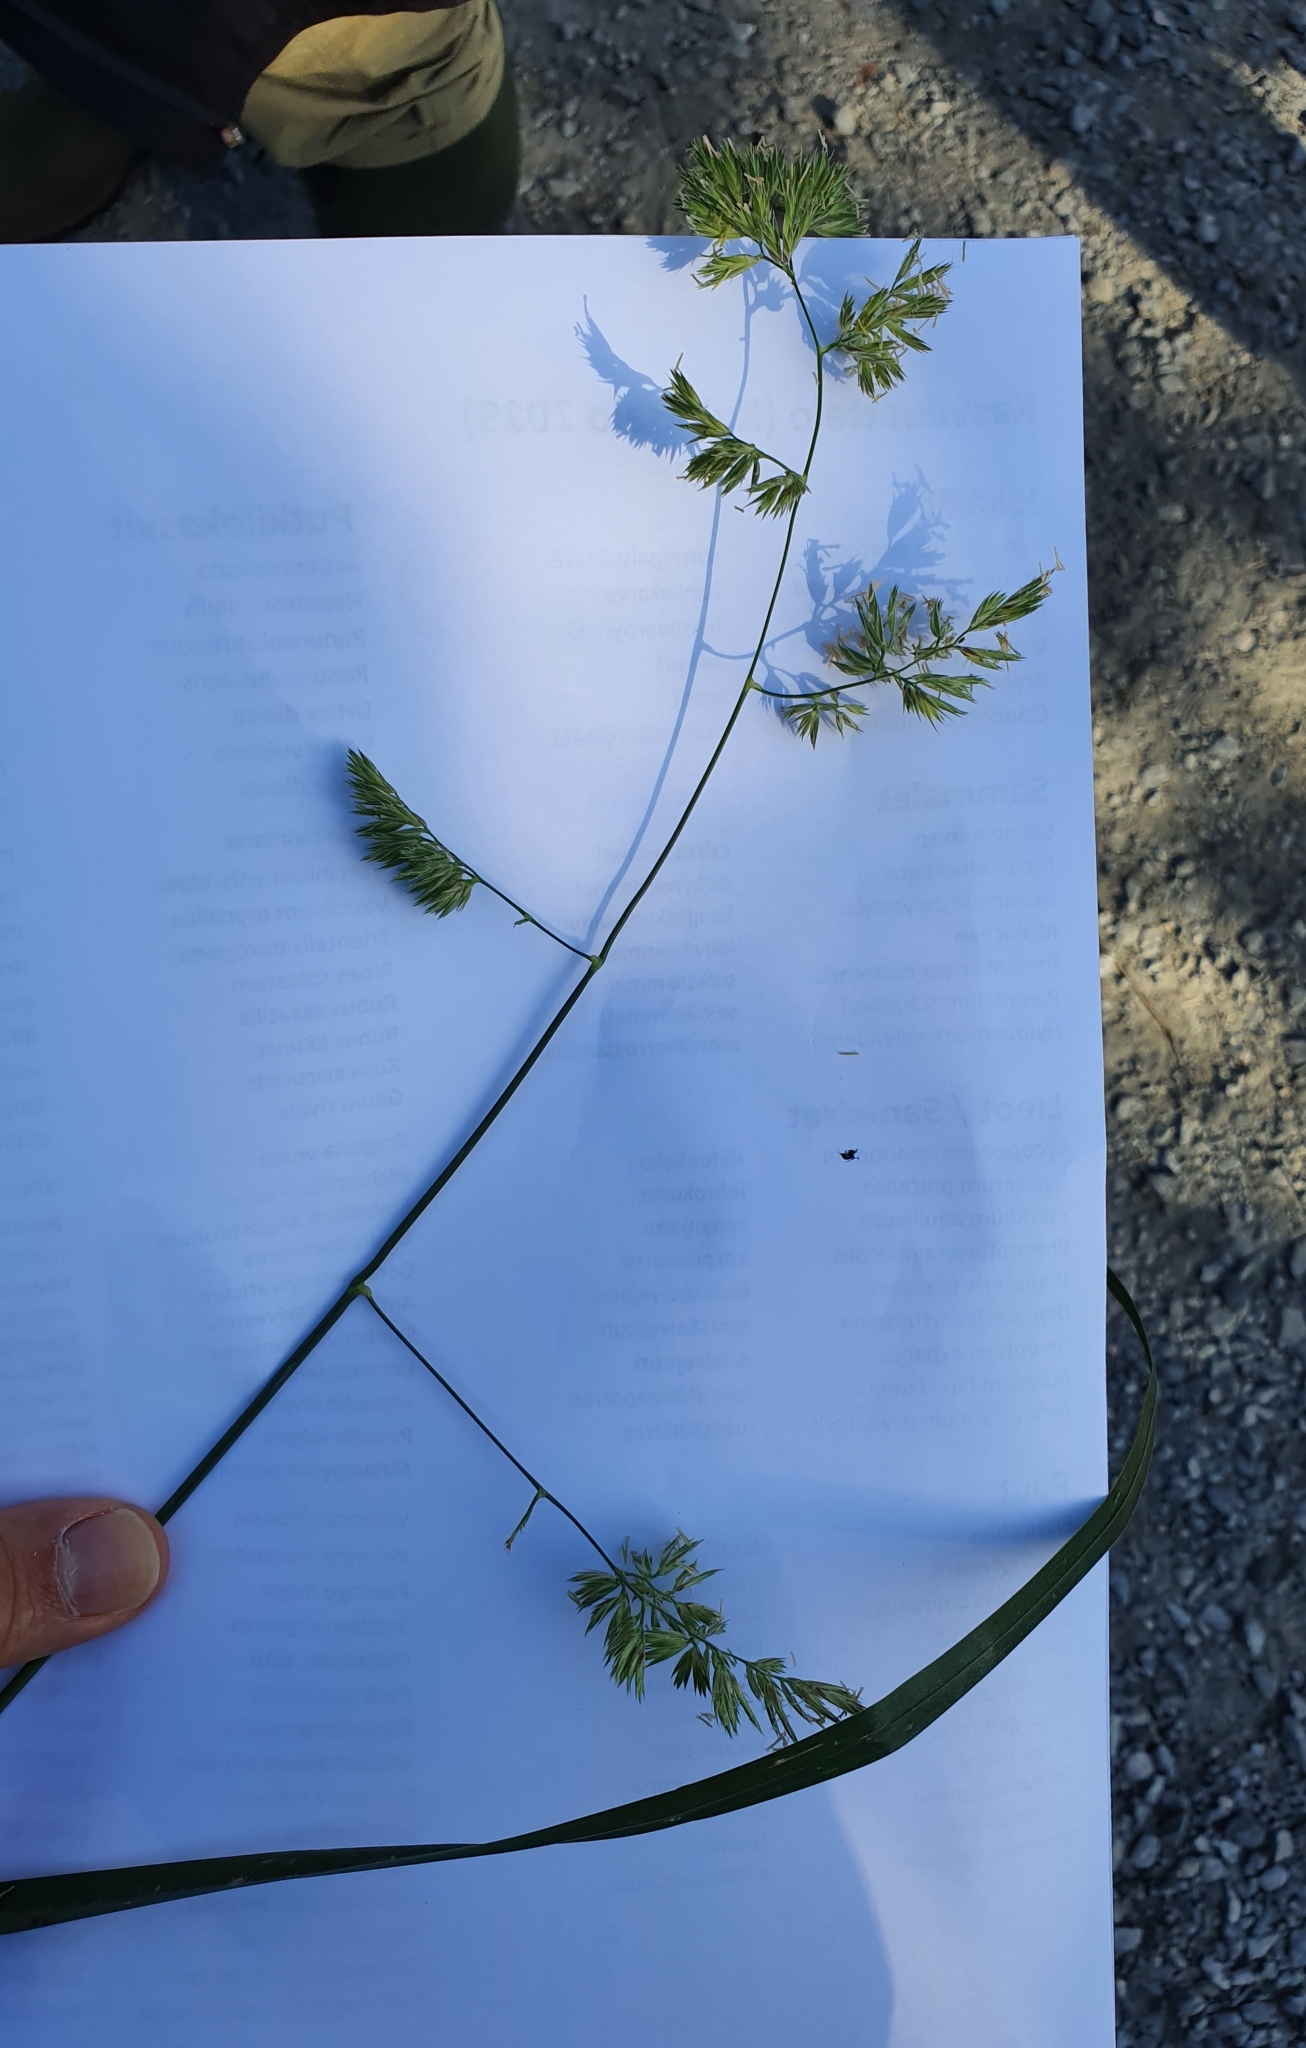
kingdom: Plantae
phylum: Tracheophyta
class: Liliopsida
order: Poales
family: Poaceae
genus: Dactylis
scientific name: Dactylis glomerata
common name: Orchardgrass
